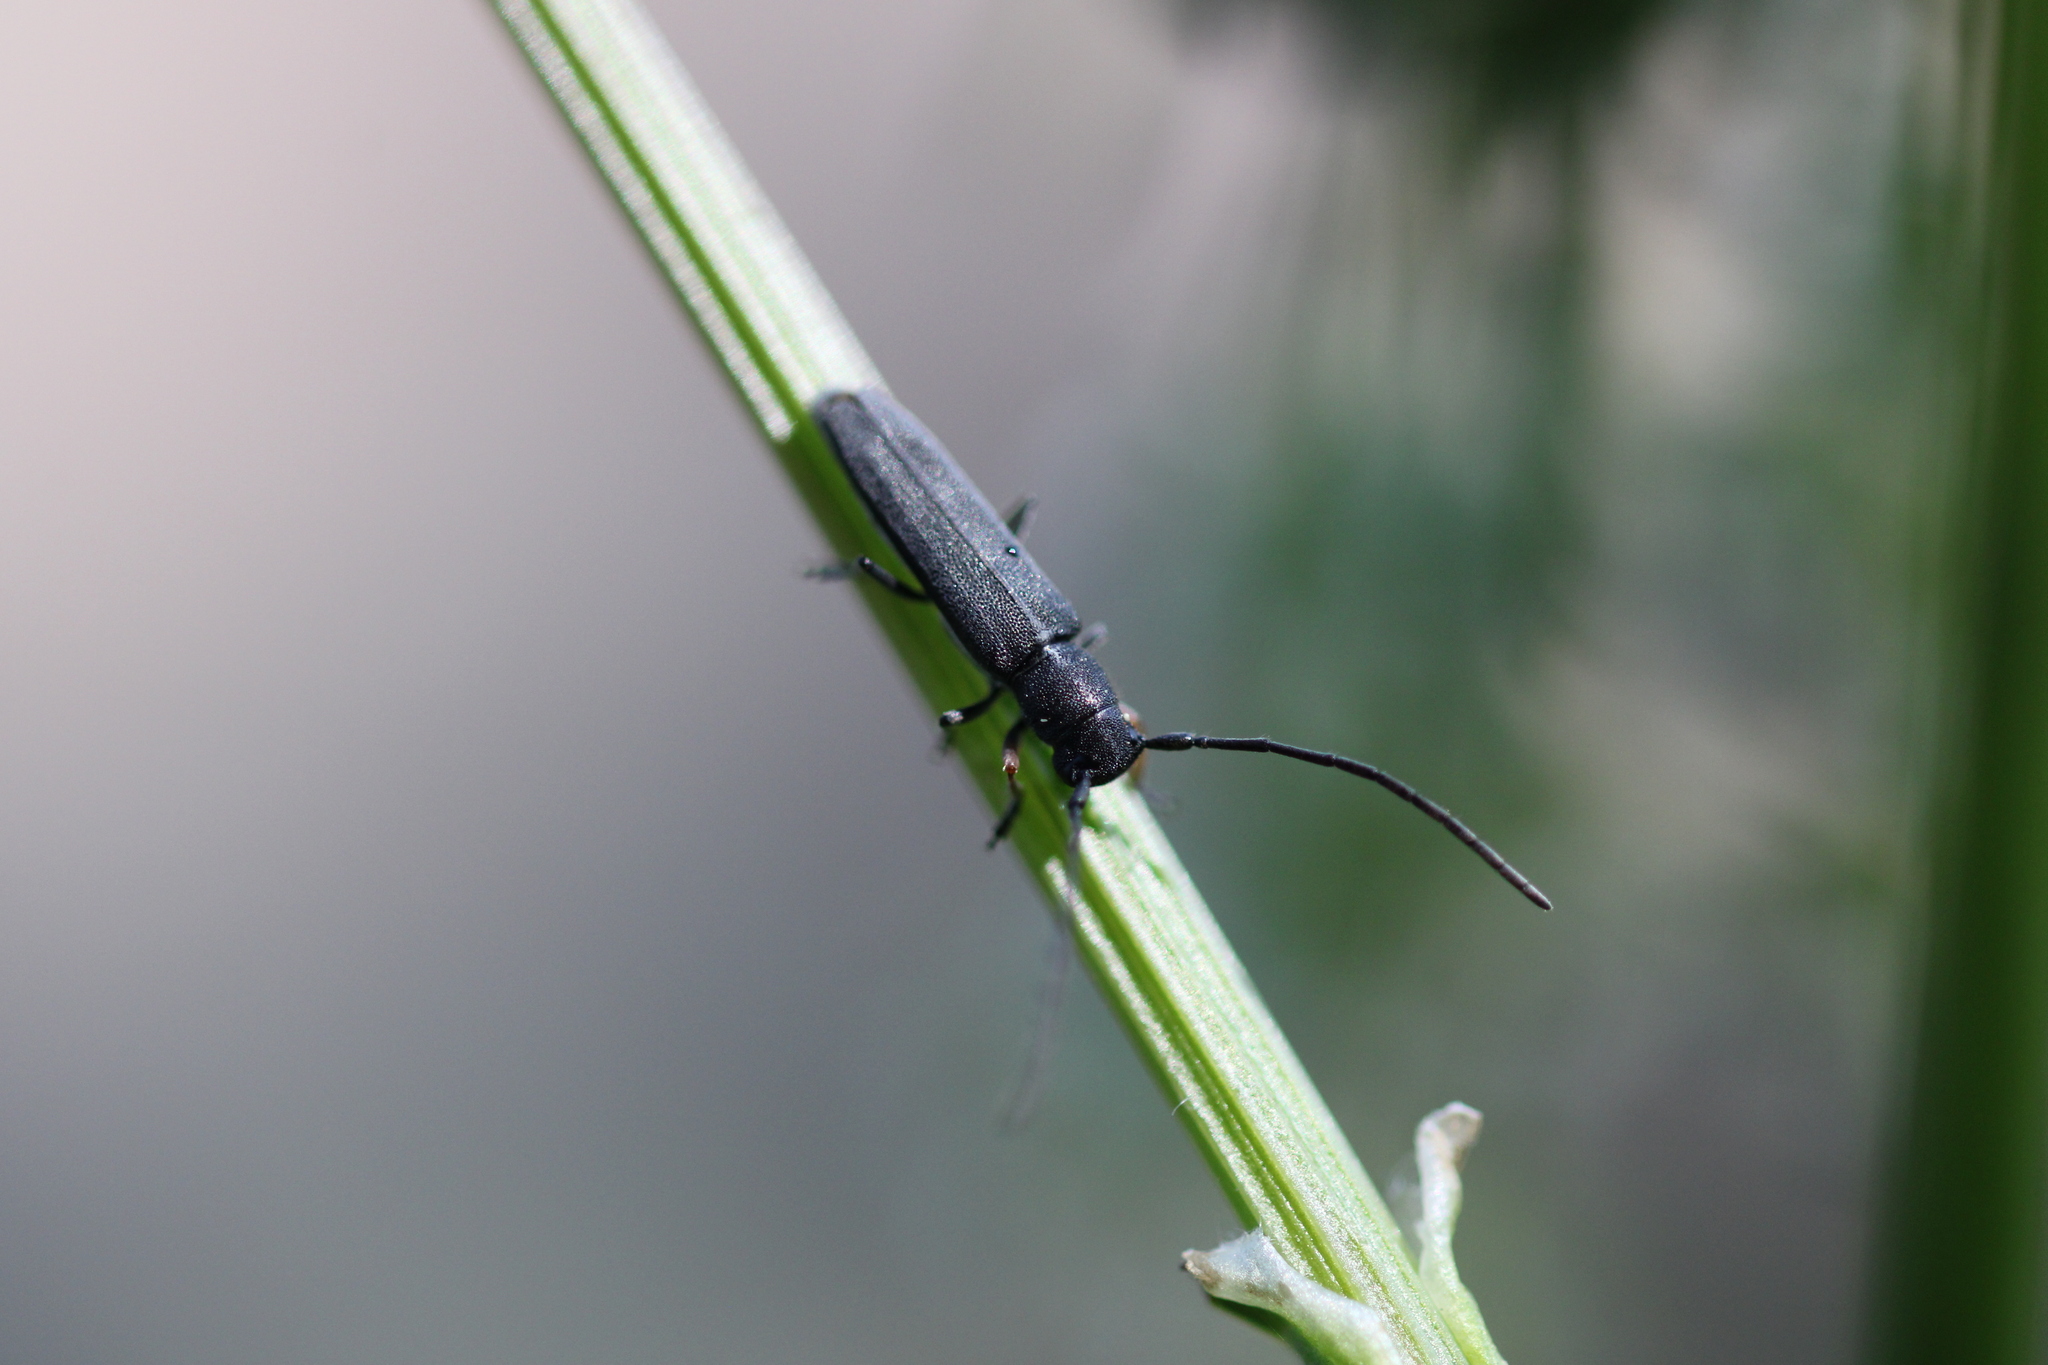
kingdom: Animalia
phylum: Arthropoda
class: Insecta
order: Coleoptera
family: Cerambycidae
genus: Phytoecia
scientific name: Phytoecia cylindrica
